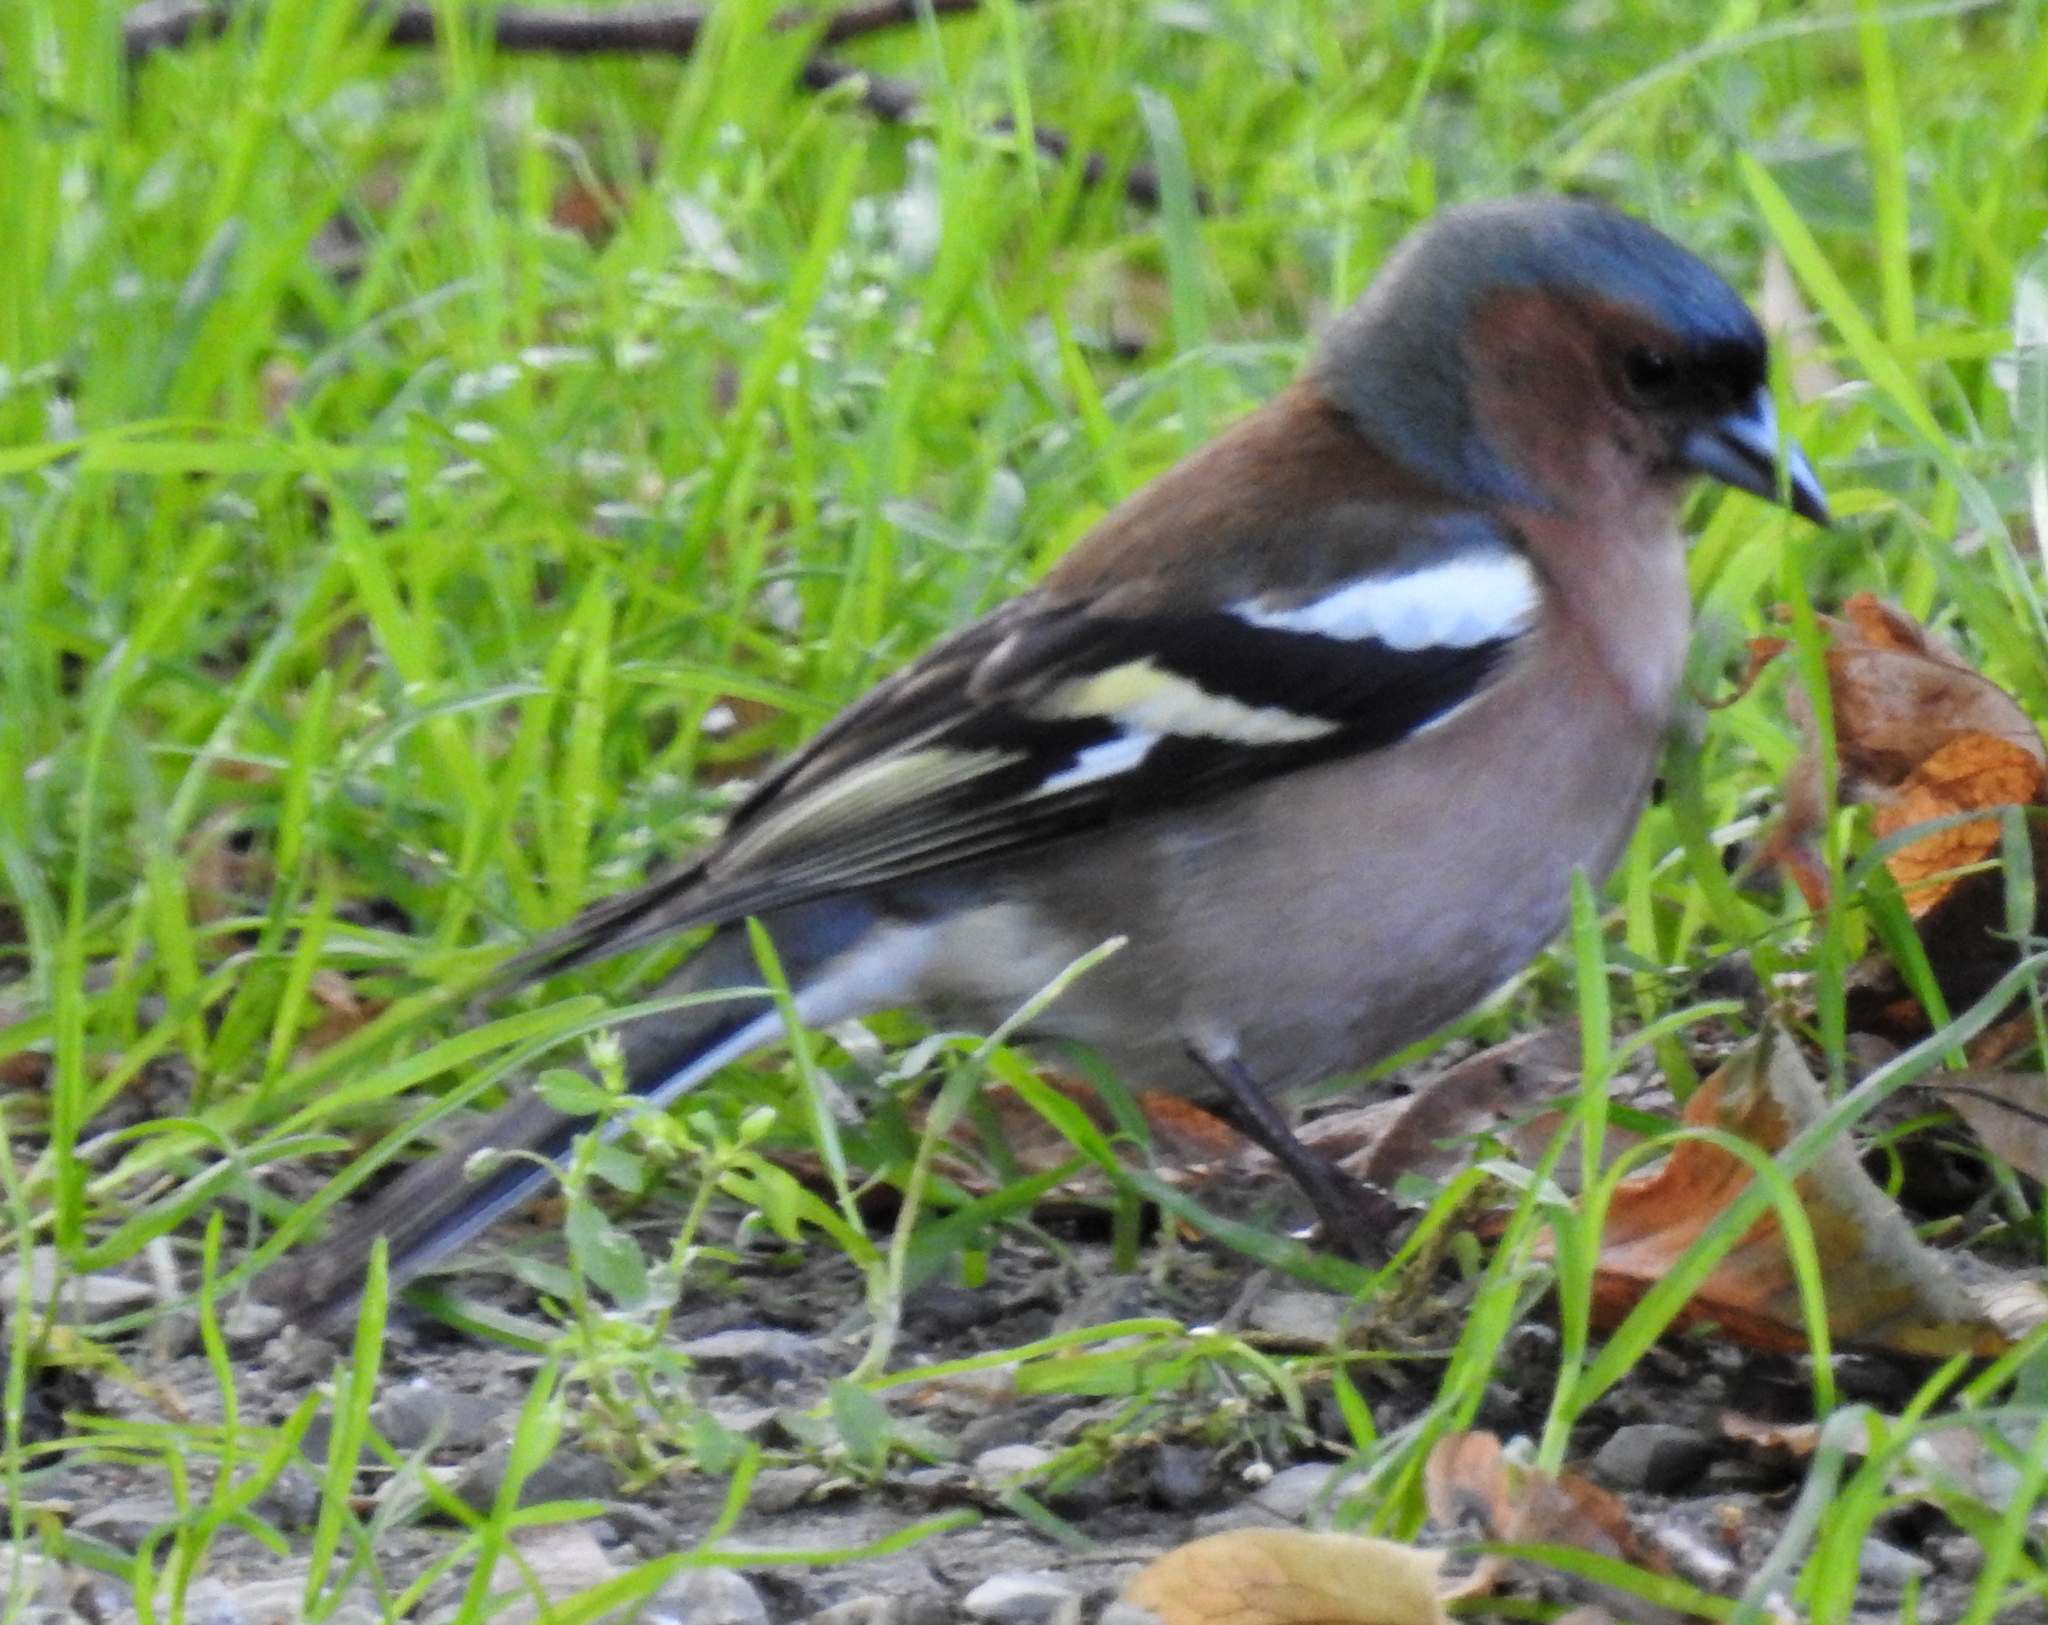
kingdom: Animalia
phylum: Chordata
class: Aves
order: Passeriformes
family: Fringillidae
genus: Fringilla
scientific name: Fringilla coelebs
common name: Common chaffinch
